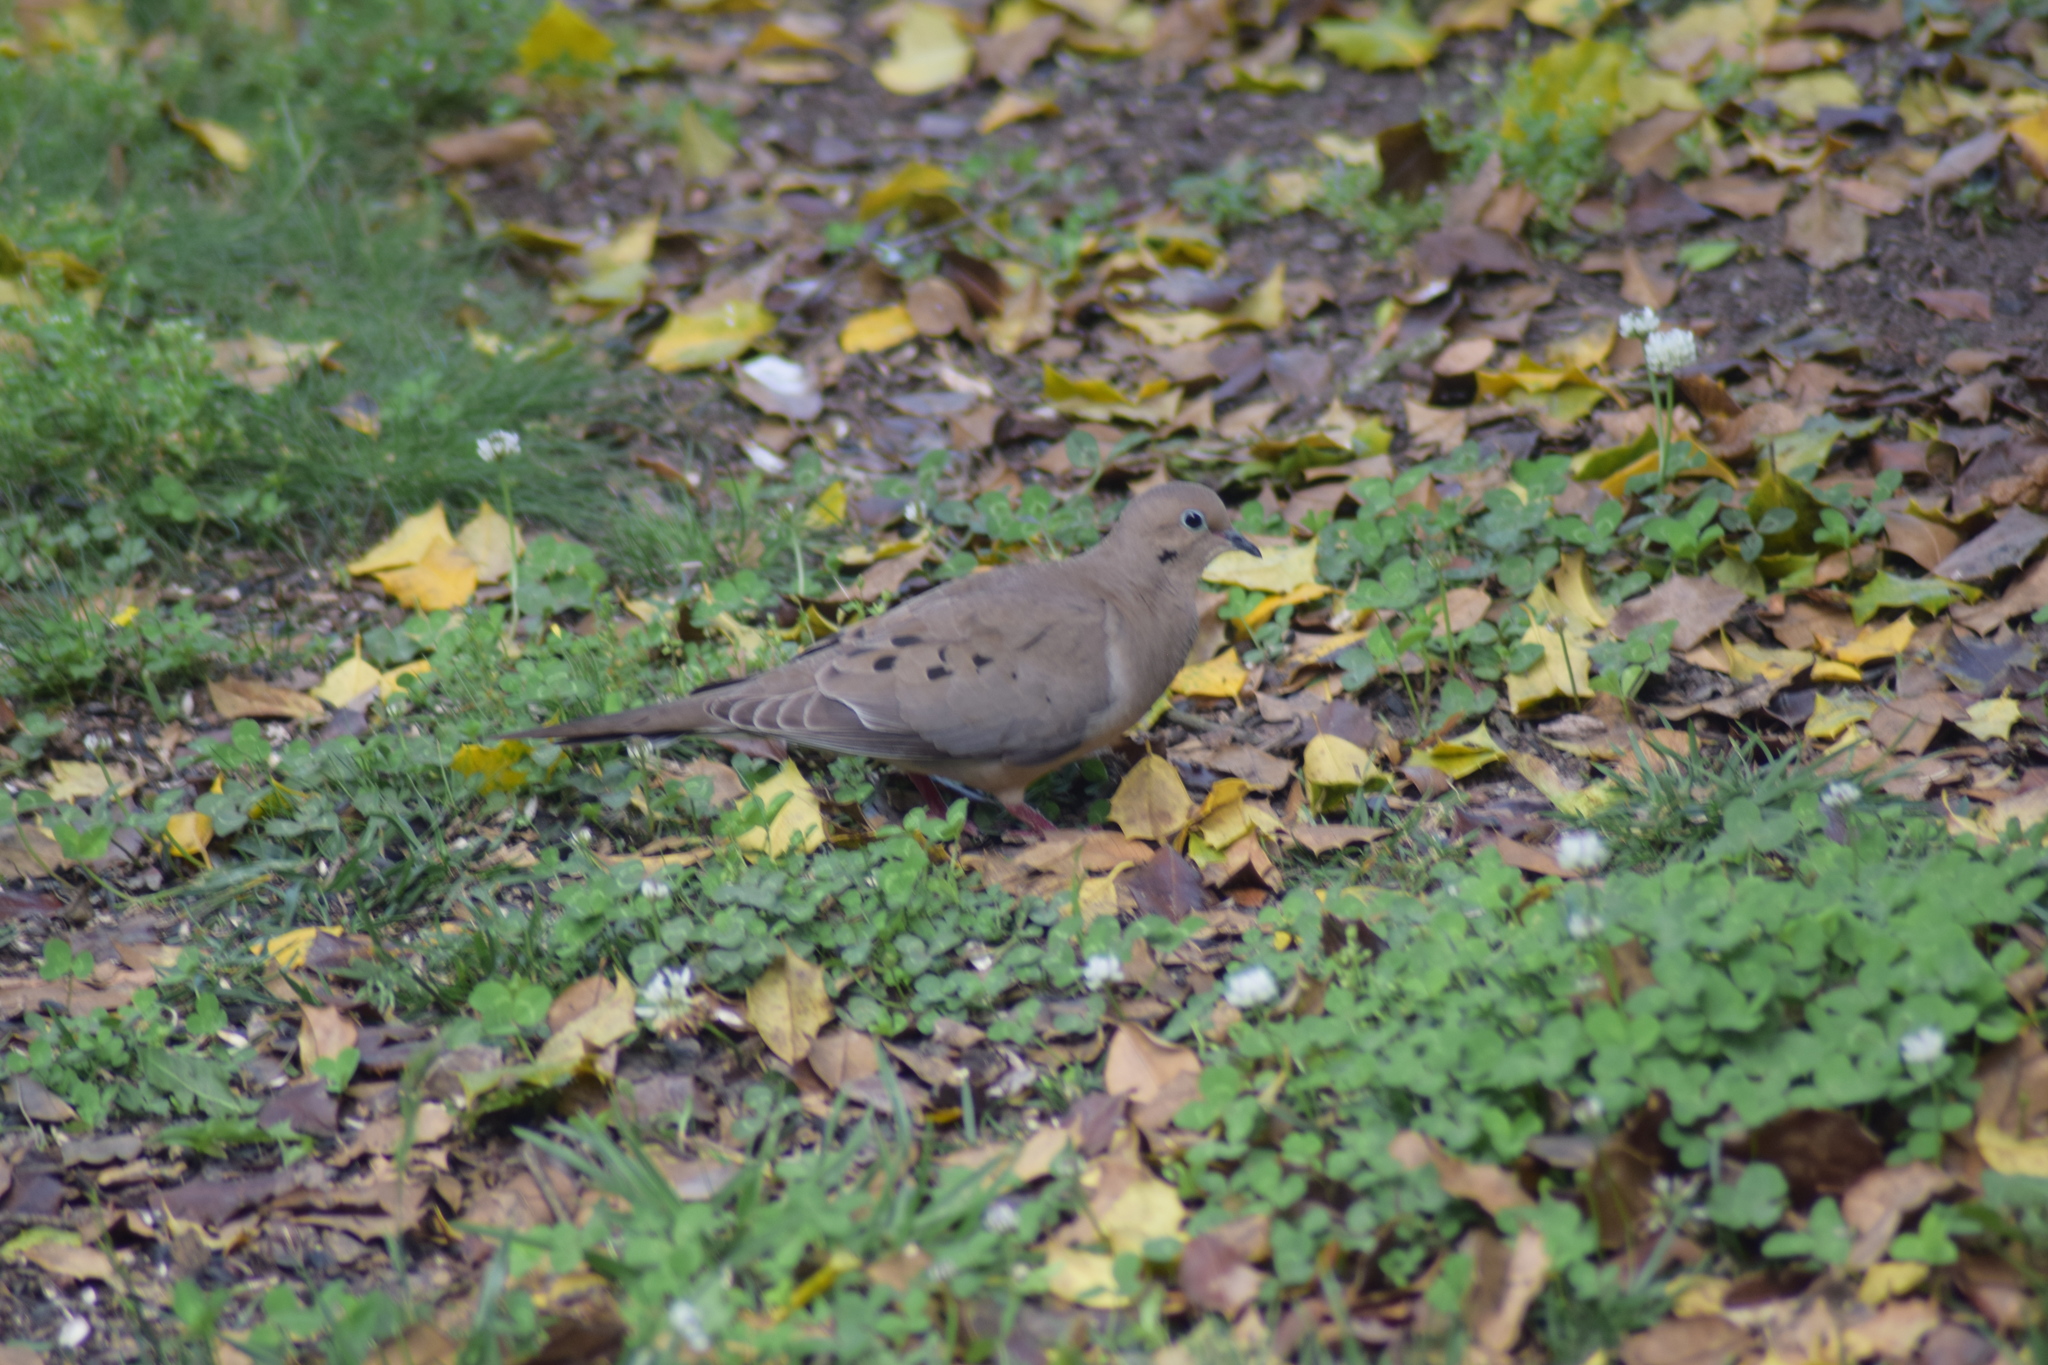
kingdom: Animalia
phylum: Chordata
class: Aves
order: Columbiformes
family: Columbidae
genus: Zenaida
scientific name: Zenaida macroura
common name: Mourning dove
